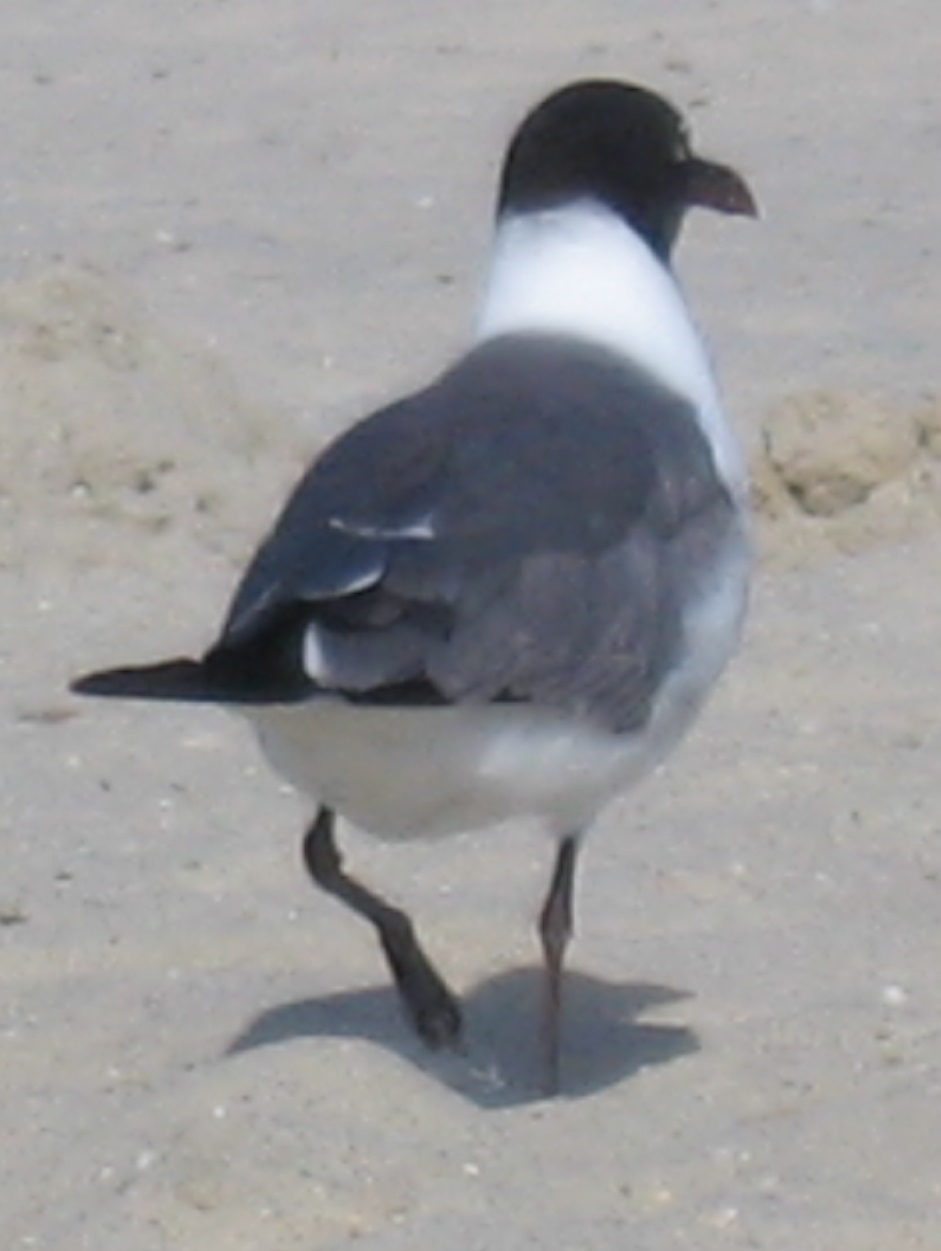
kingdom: Animalia
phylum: Chordata
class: Aves
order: Charadriiformes
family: Laridae
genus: Leucophaeus
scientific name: Leucophaeus atricilla
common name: Laughing gull
